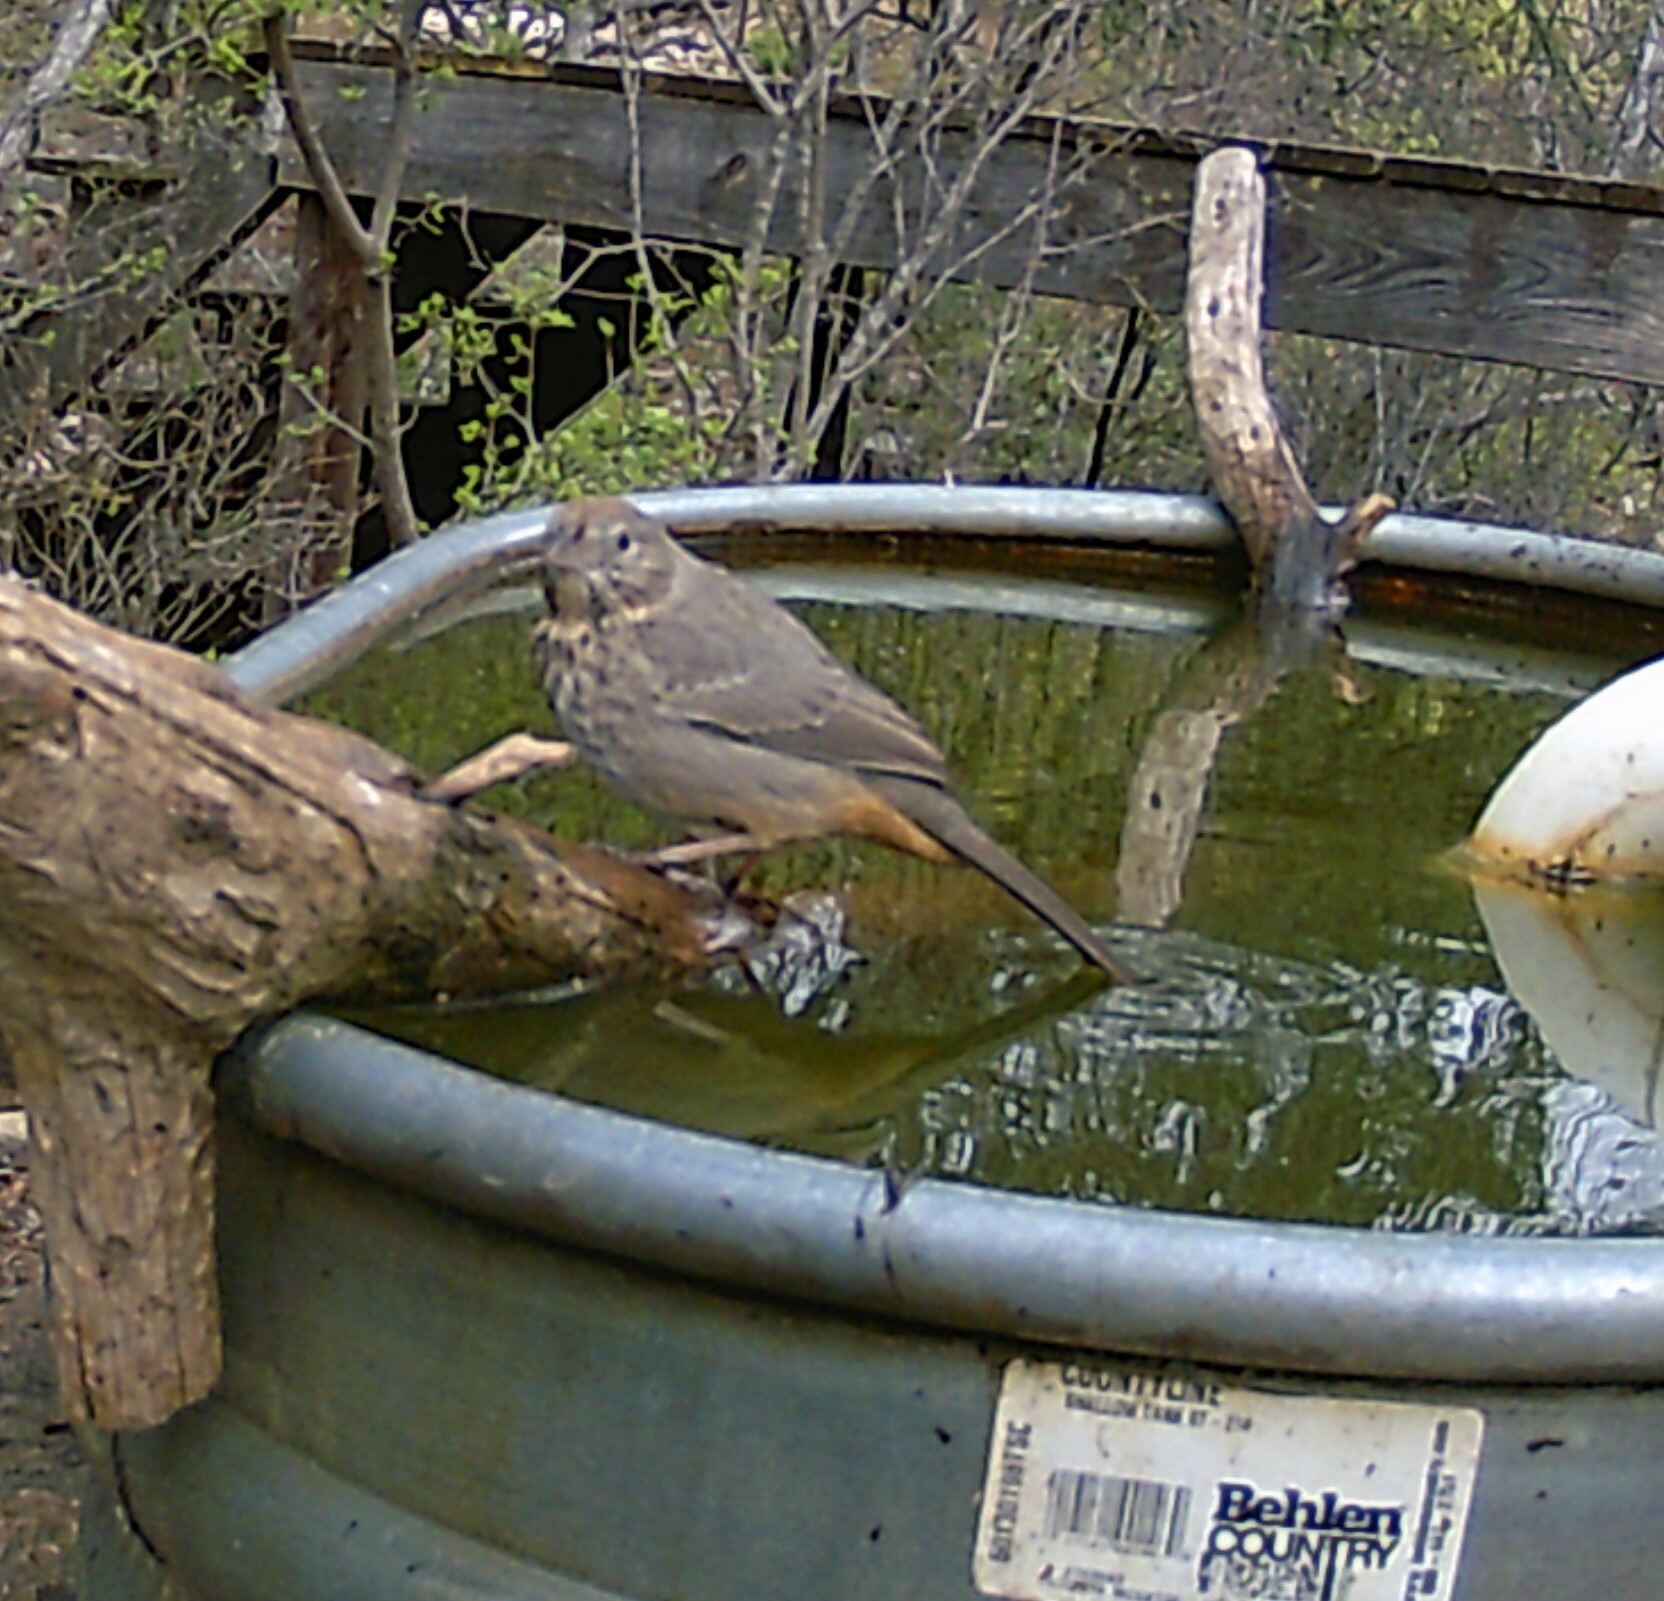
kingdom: Animalia
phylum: Chordata
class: Aves
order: Passeriformes
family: Passerellidae
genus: Melozone
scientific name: Melozone fusca
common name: Canyon towhee
